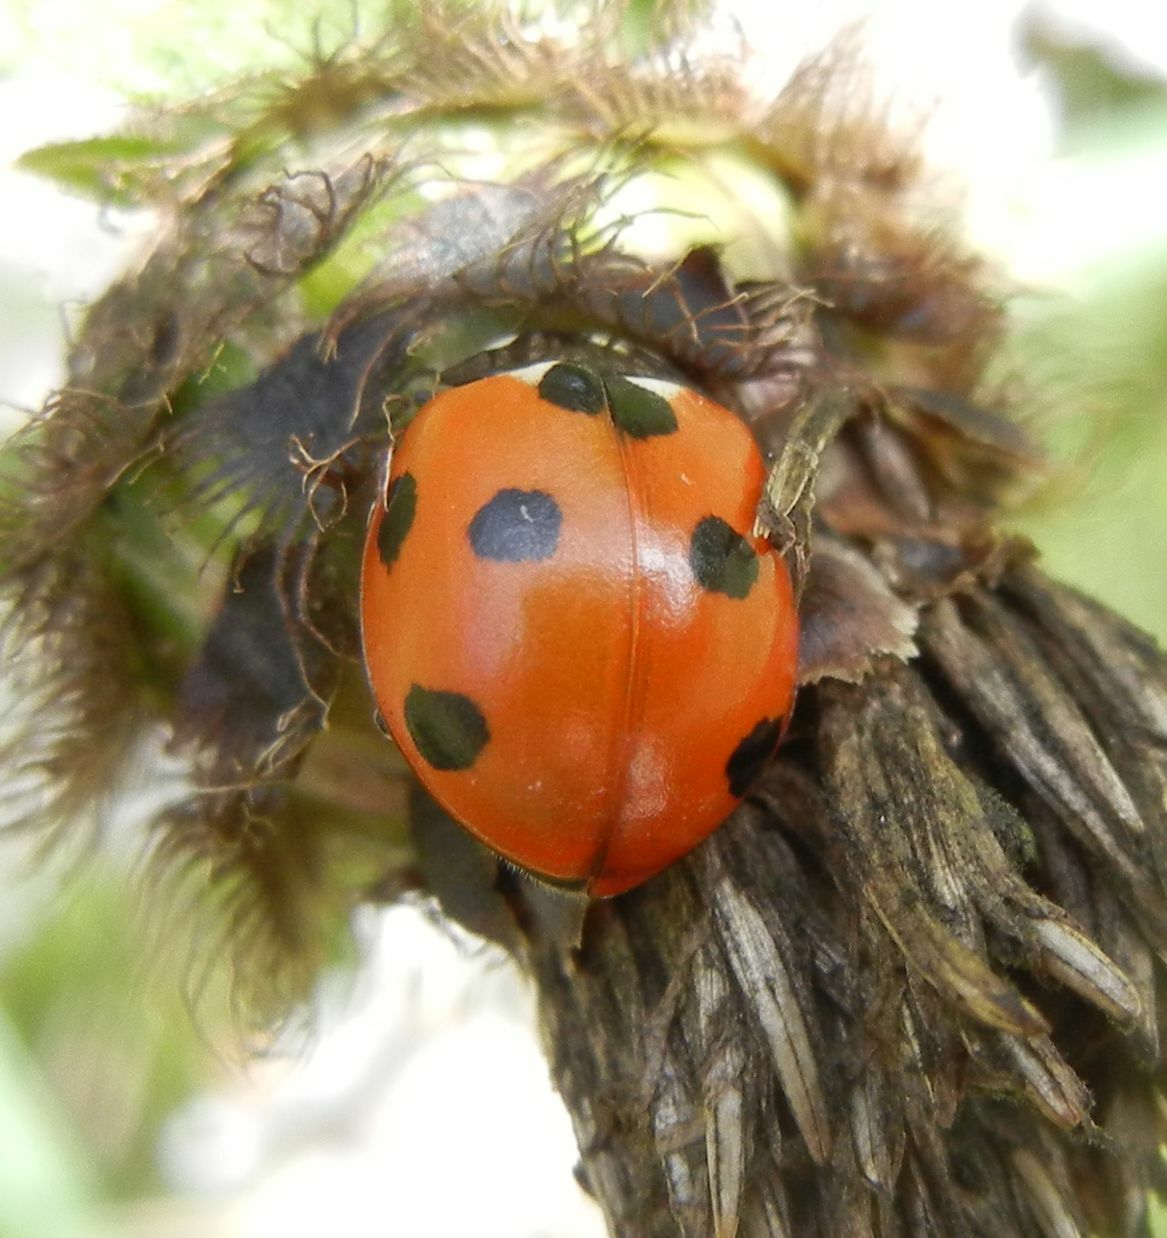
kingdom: Animalia
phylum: Arthropoda
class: Insecta
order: Coleoptera
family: Coccinellidae
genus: Coccinella
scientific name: Coccinella septempunctata
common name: Sevenspotted lady beetle
